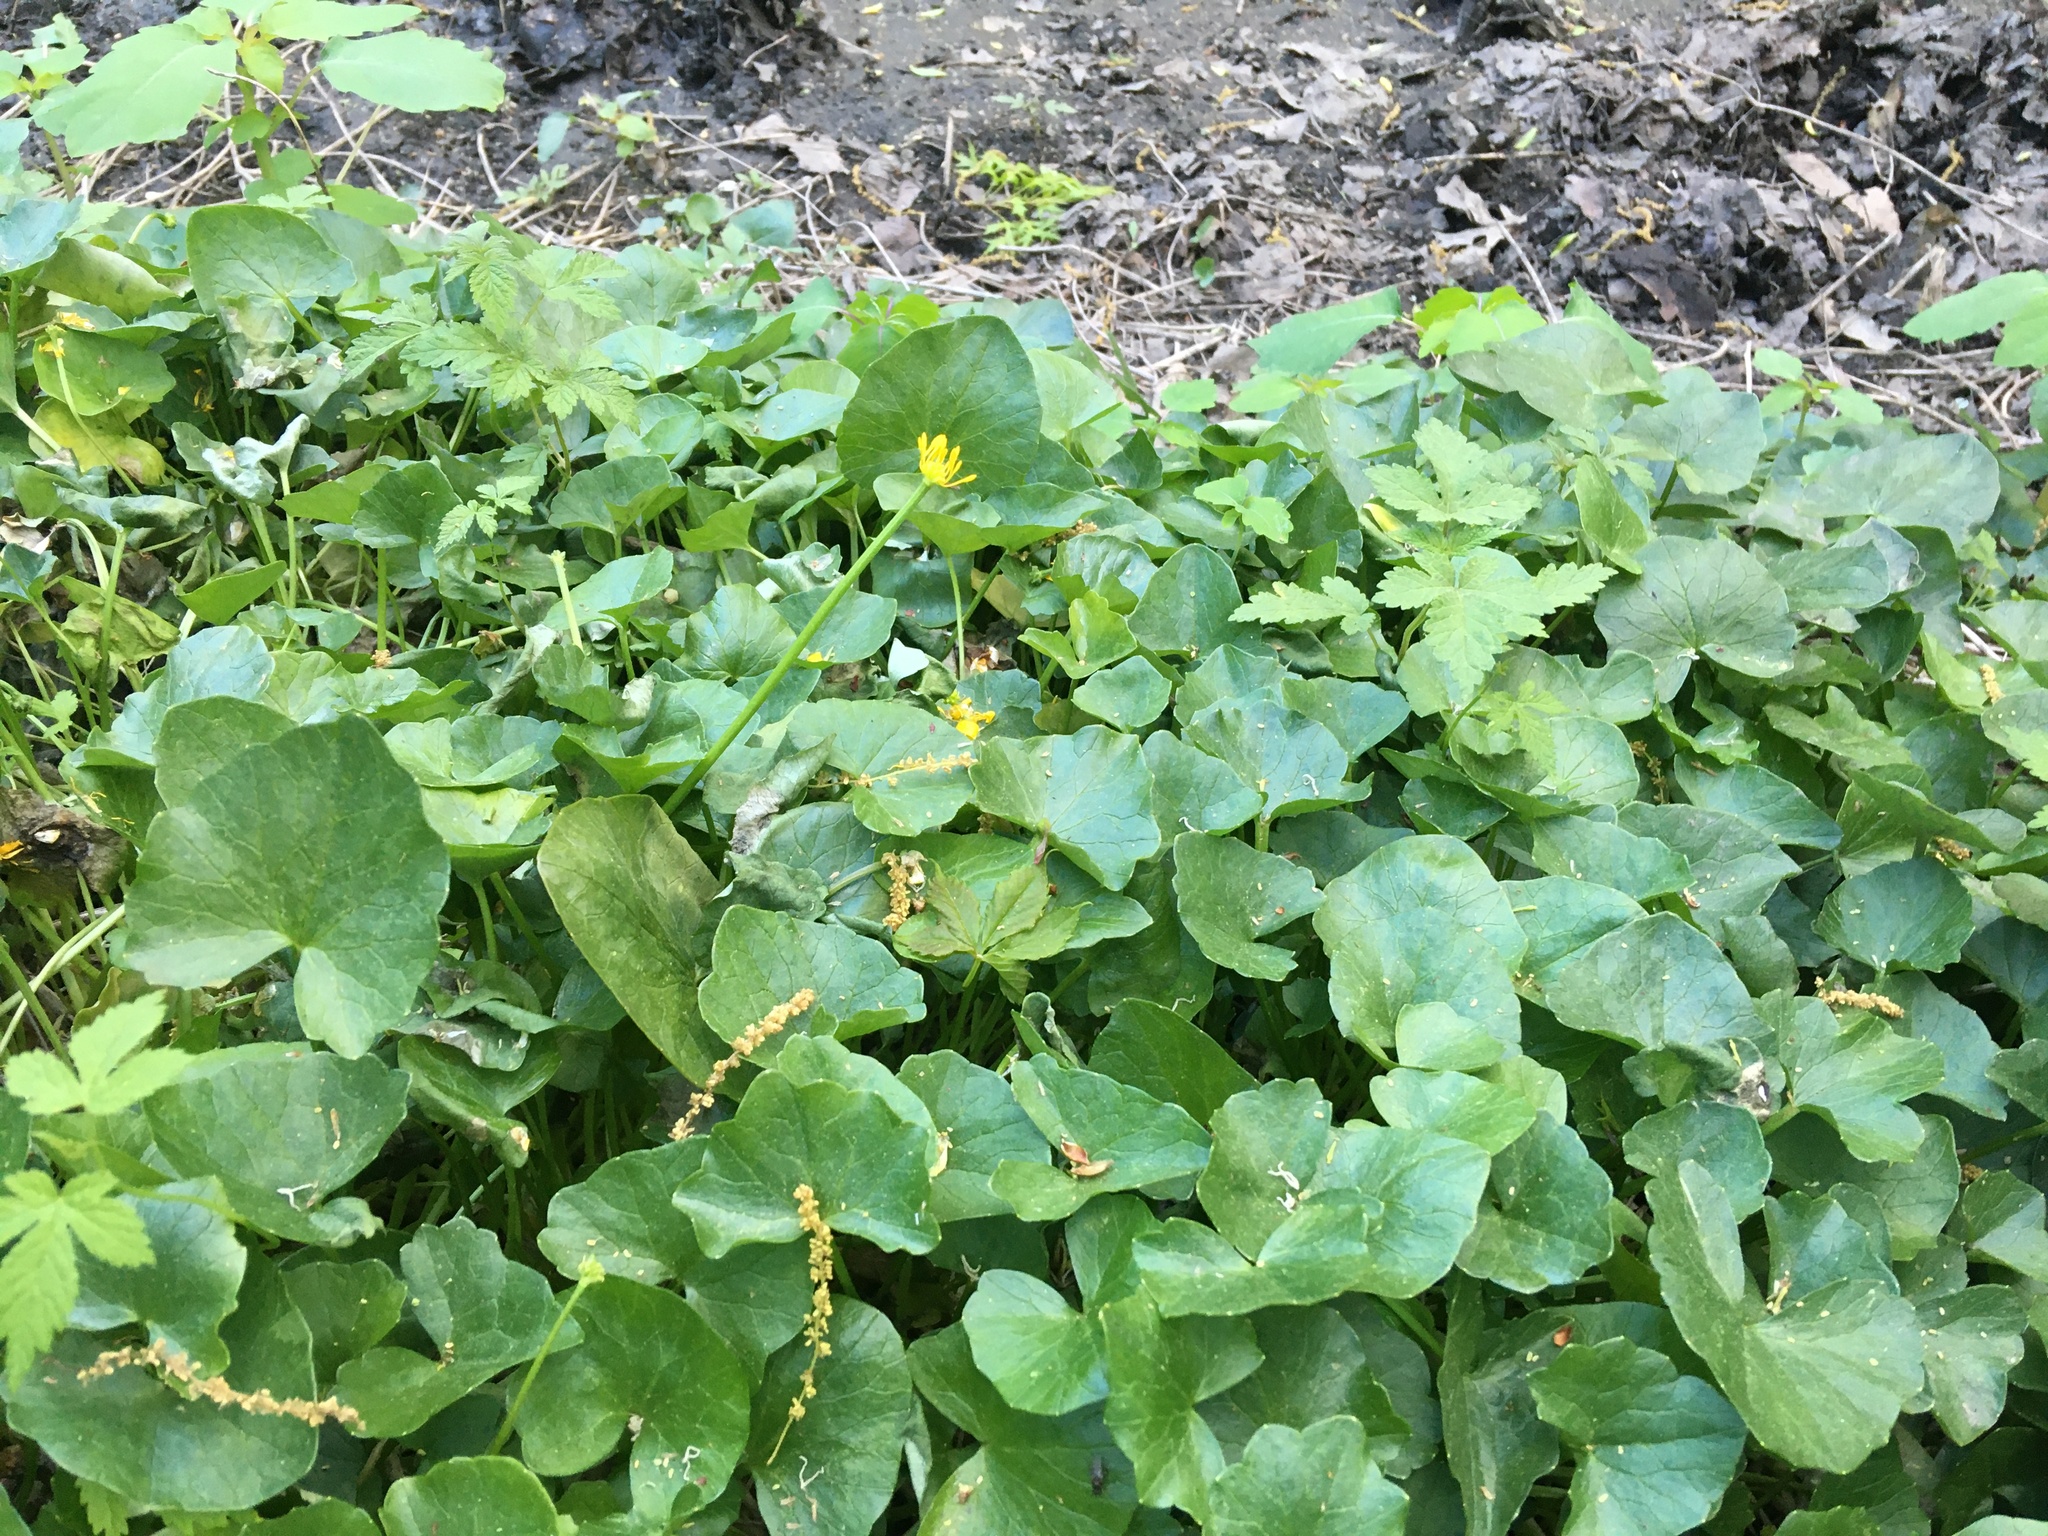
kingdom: Plantae
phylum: Tracheophyta
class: Magnoliopsida
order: Ranunculales
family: Ranunculaceae
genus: Ficaria
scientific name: Ficaria verna
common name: Lesser celandine
